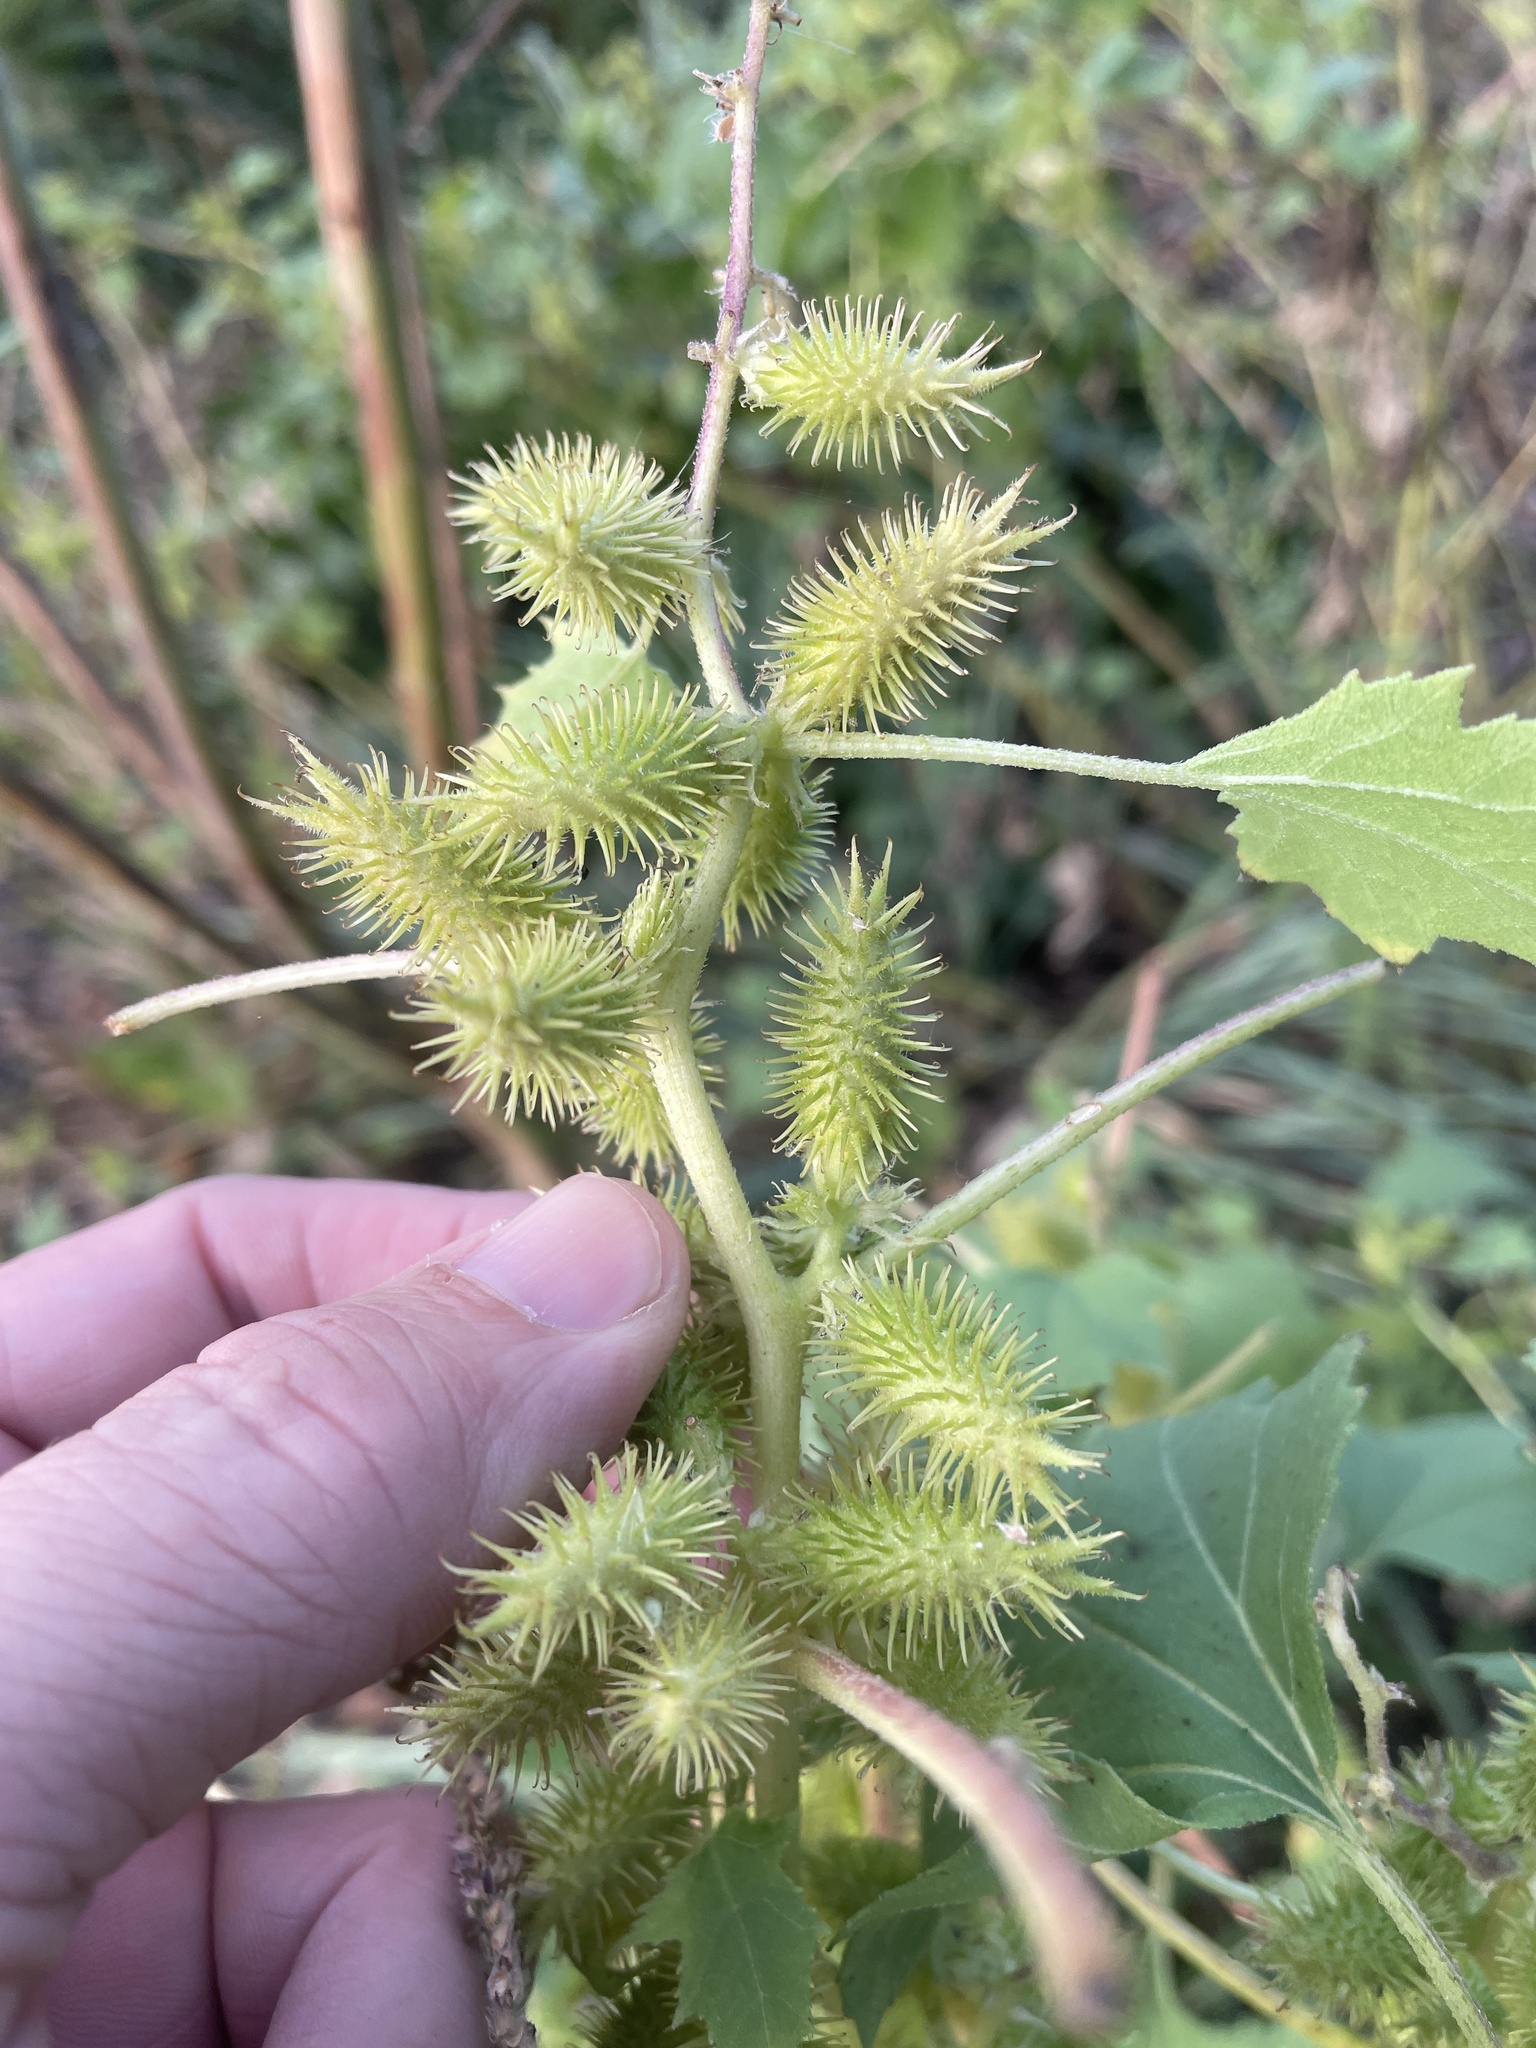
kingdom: Plantae
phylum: Tracheophyta
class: Magnoliopsida
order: Asterales
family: Asteraceae
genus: Xanthium
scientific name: Xanthium strumarium
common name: Rough cocklebur
